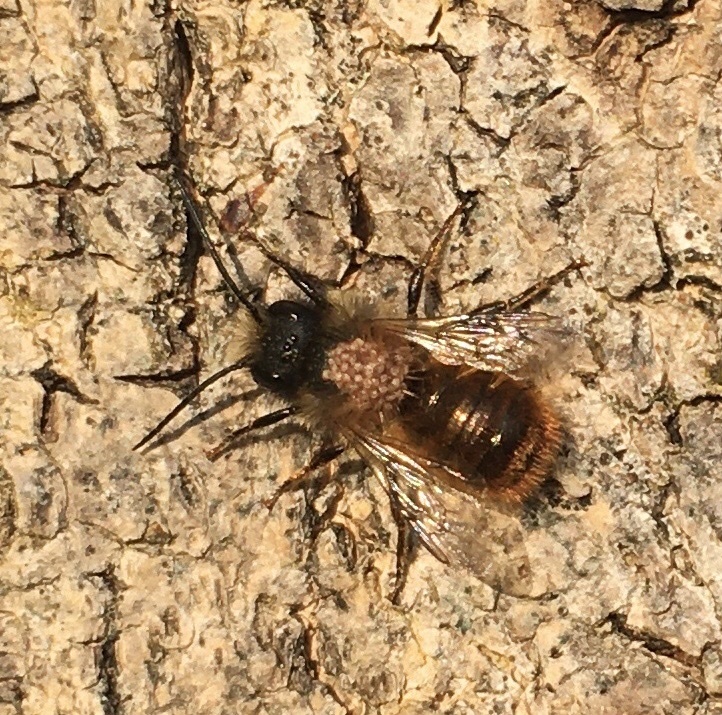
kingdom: Animalia
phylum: Arthropoda
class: Insecta
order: Hymenoptera
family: Megachilidae
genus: Osmia
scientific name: Osmia bicornis
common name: Red mason bee
